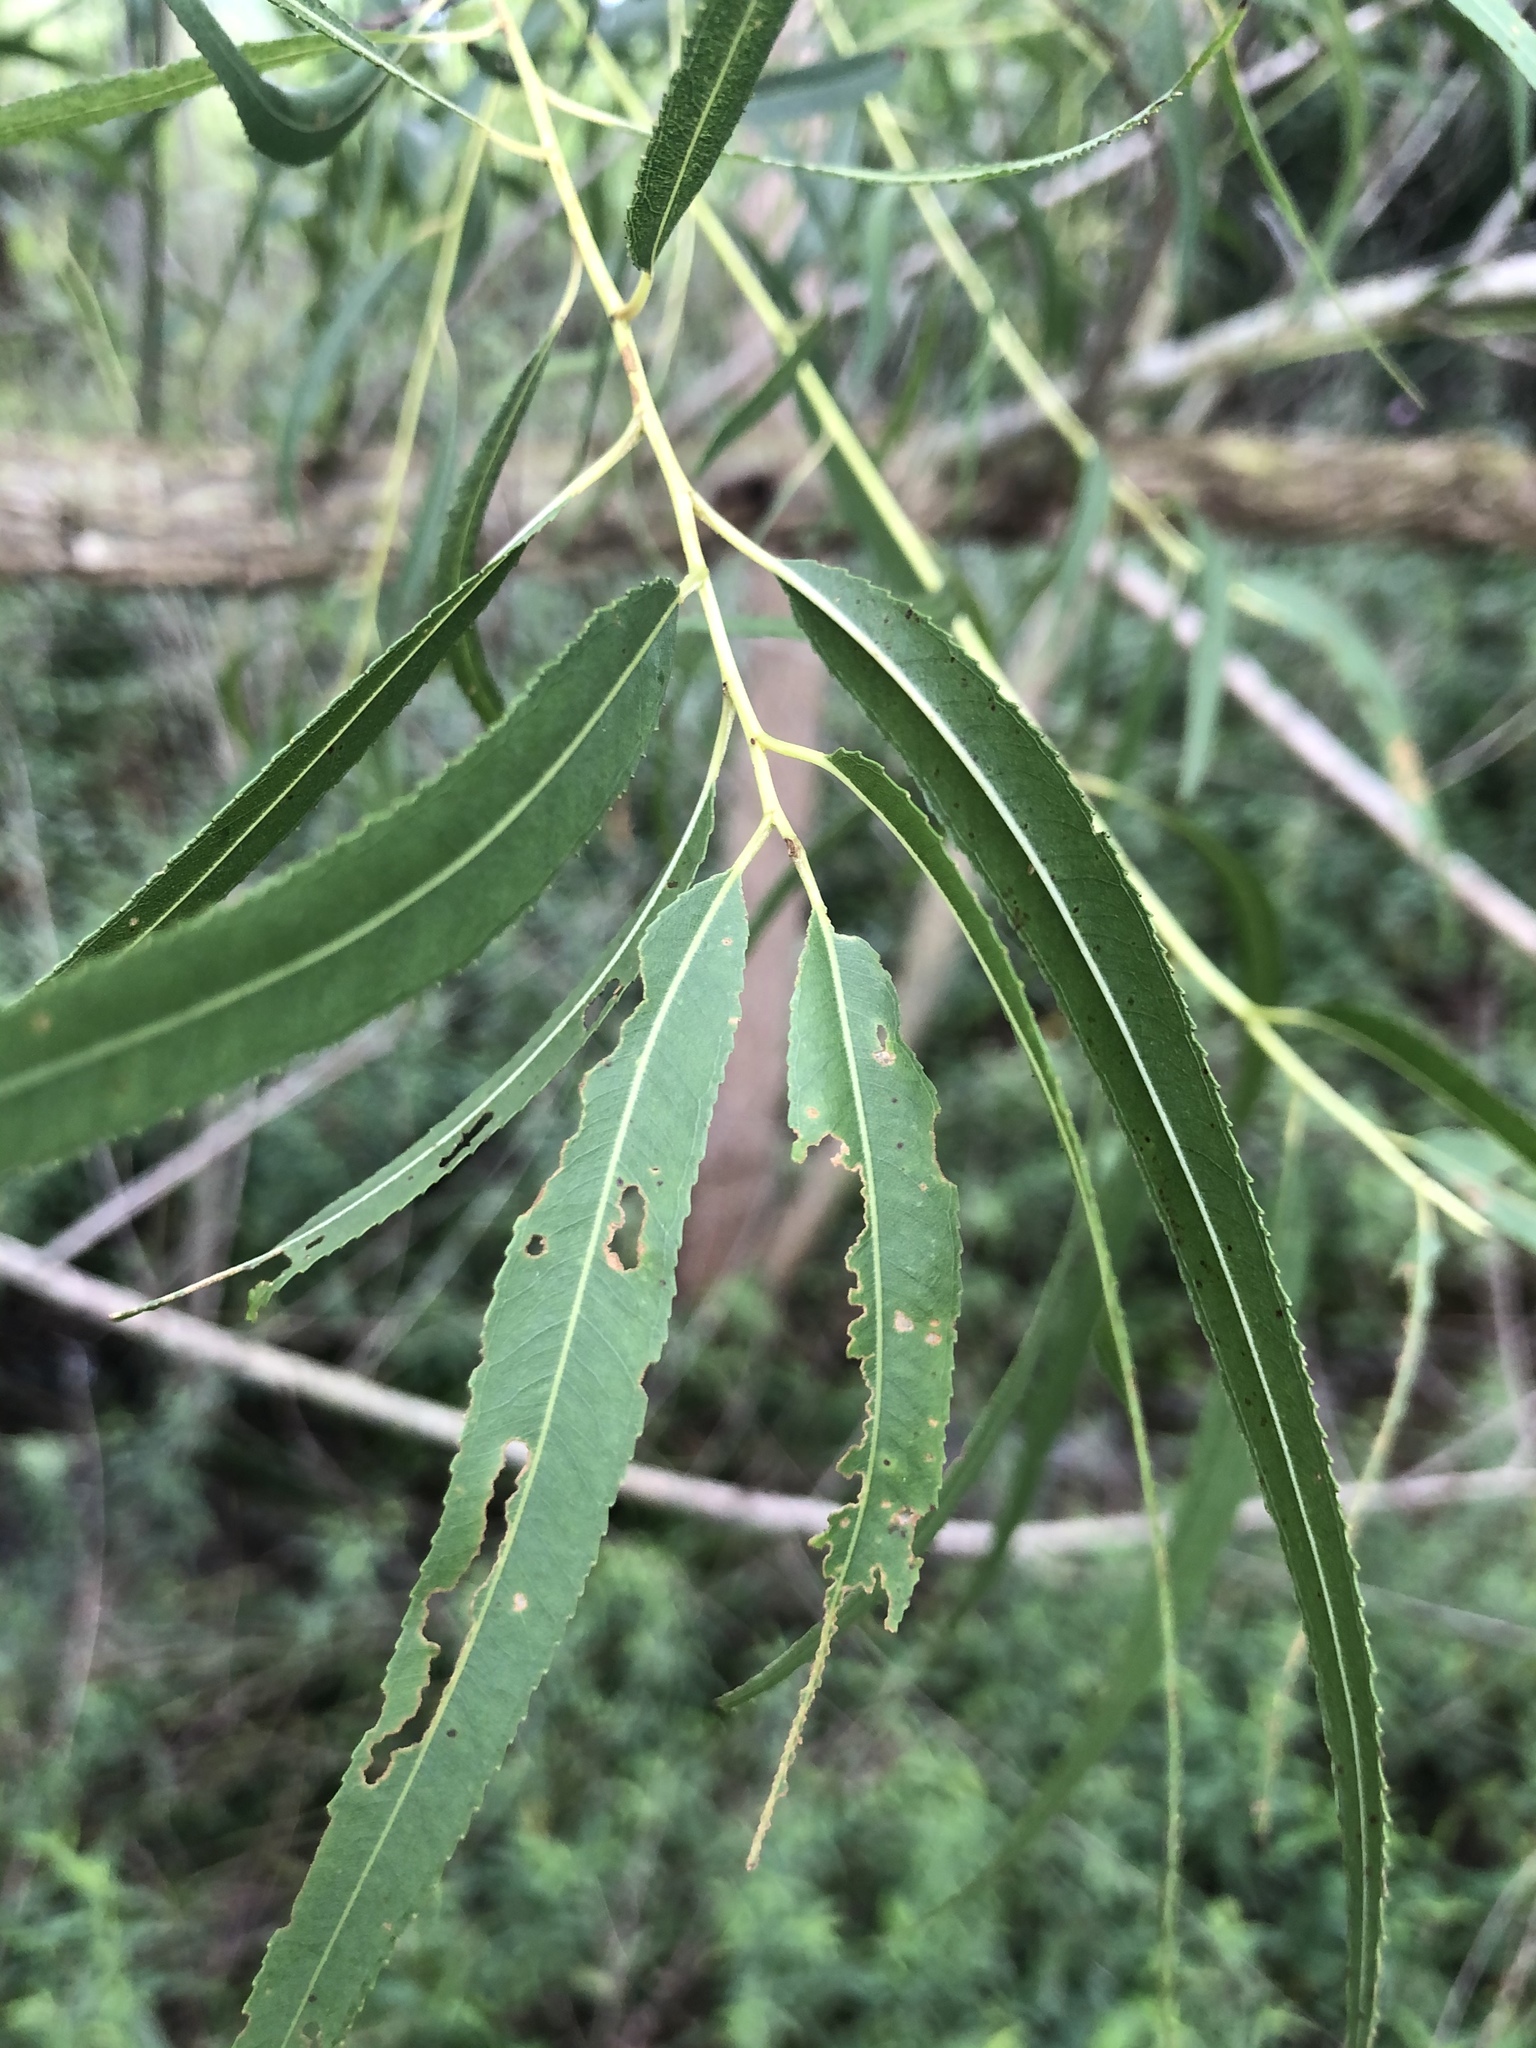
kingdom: Plantae
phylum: Tracheophyta
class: Magnoliopsida
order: Malpighiales
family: Salicaceae
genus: Salix
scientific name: Salix nigra
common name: Black willow
